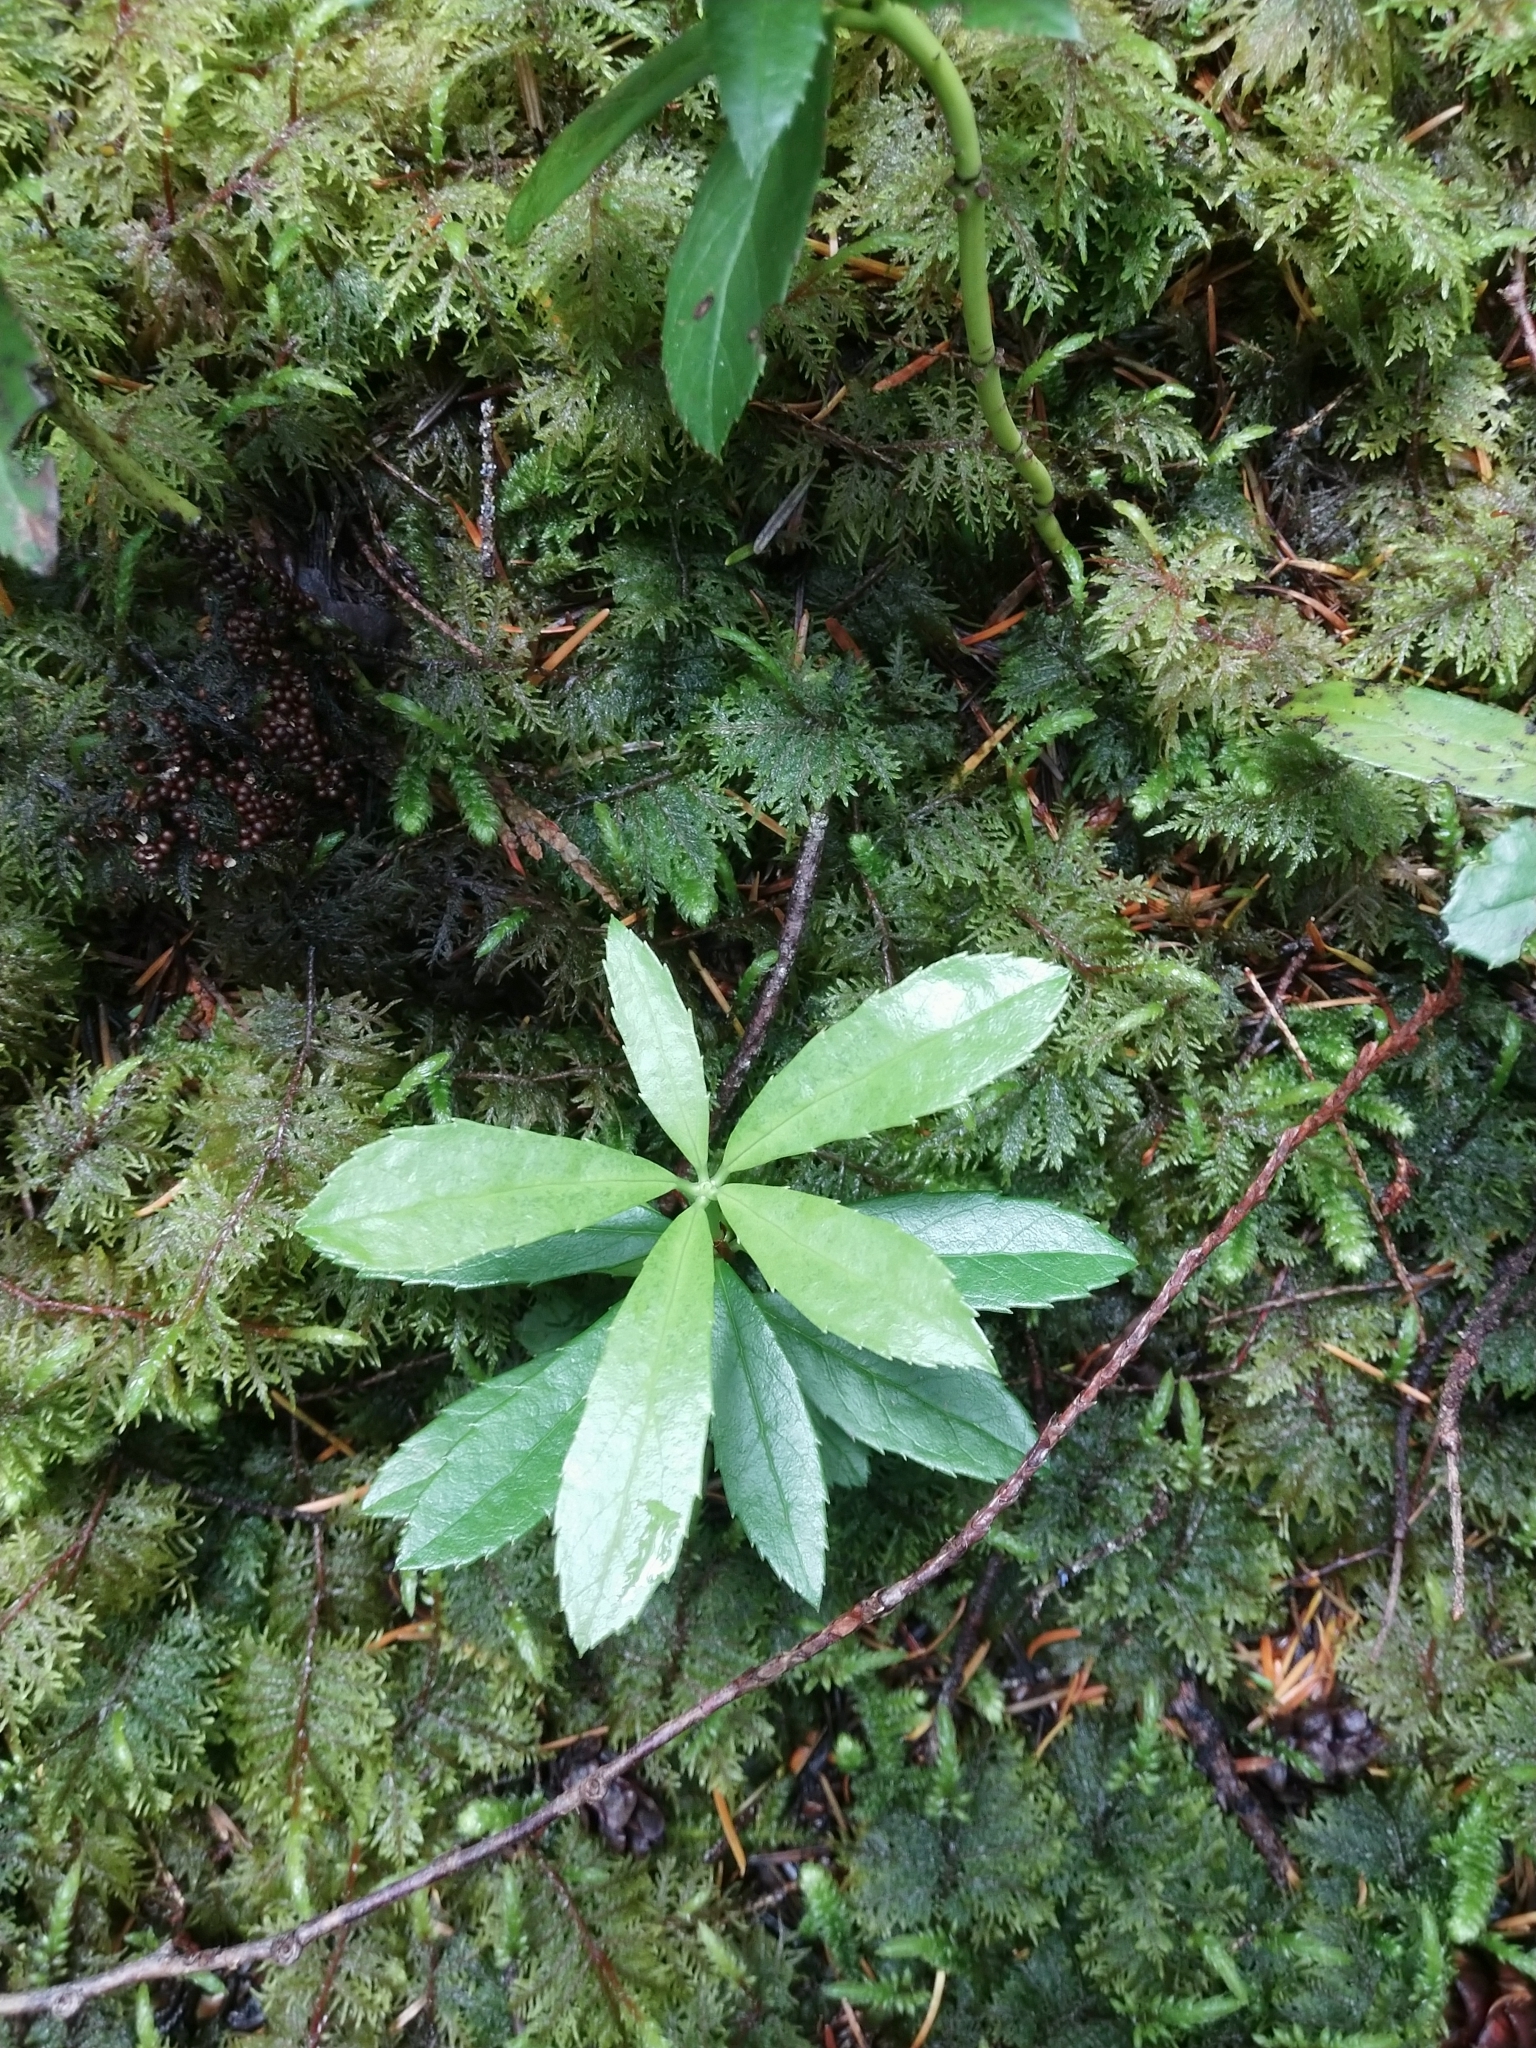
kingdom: Plantae
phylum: Tracheophyta
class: Magnoliopsida
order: Ericales
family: Ericaceae
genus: Chimaphila
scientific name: Chimaphila umbellata
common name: Pipsissewa
